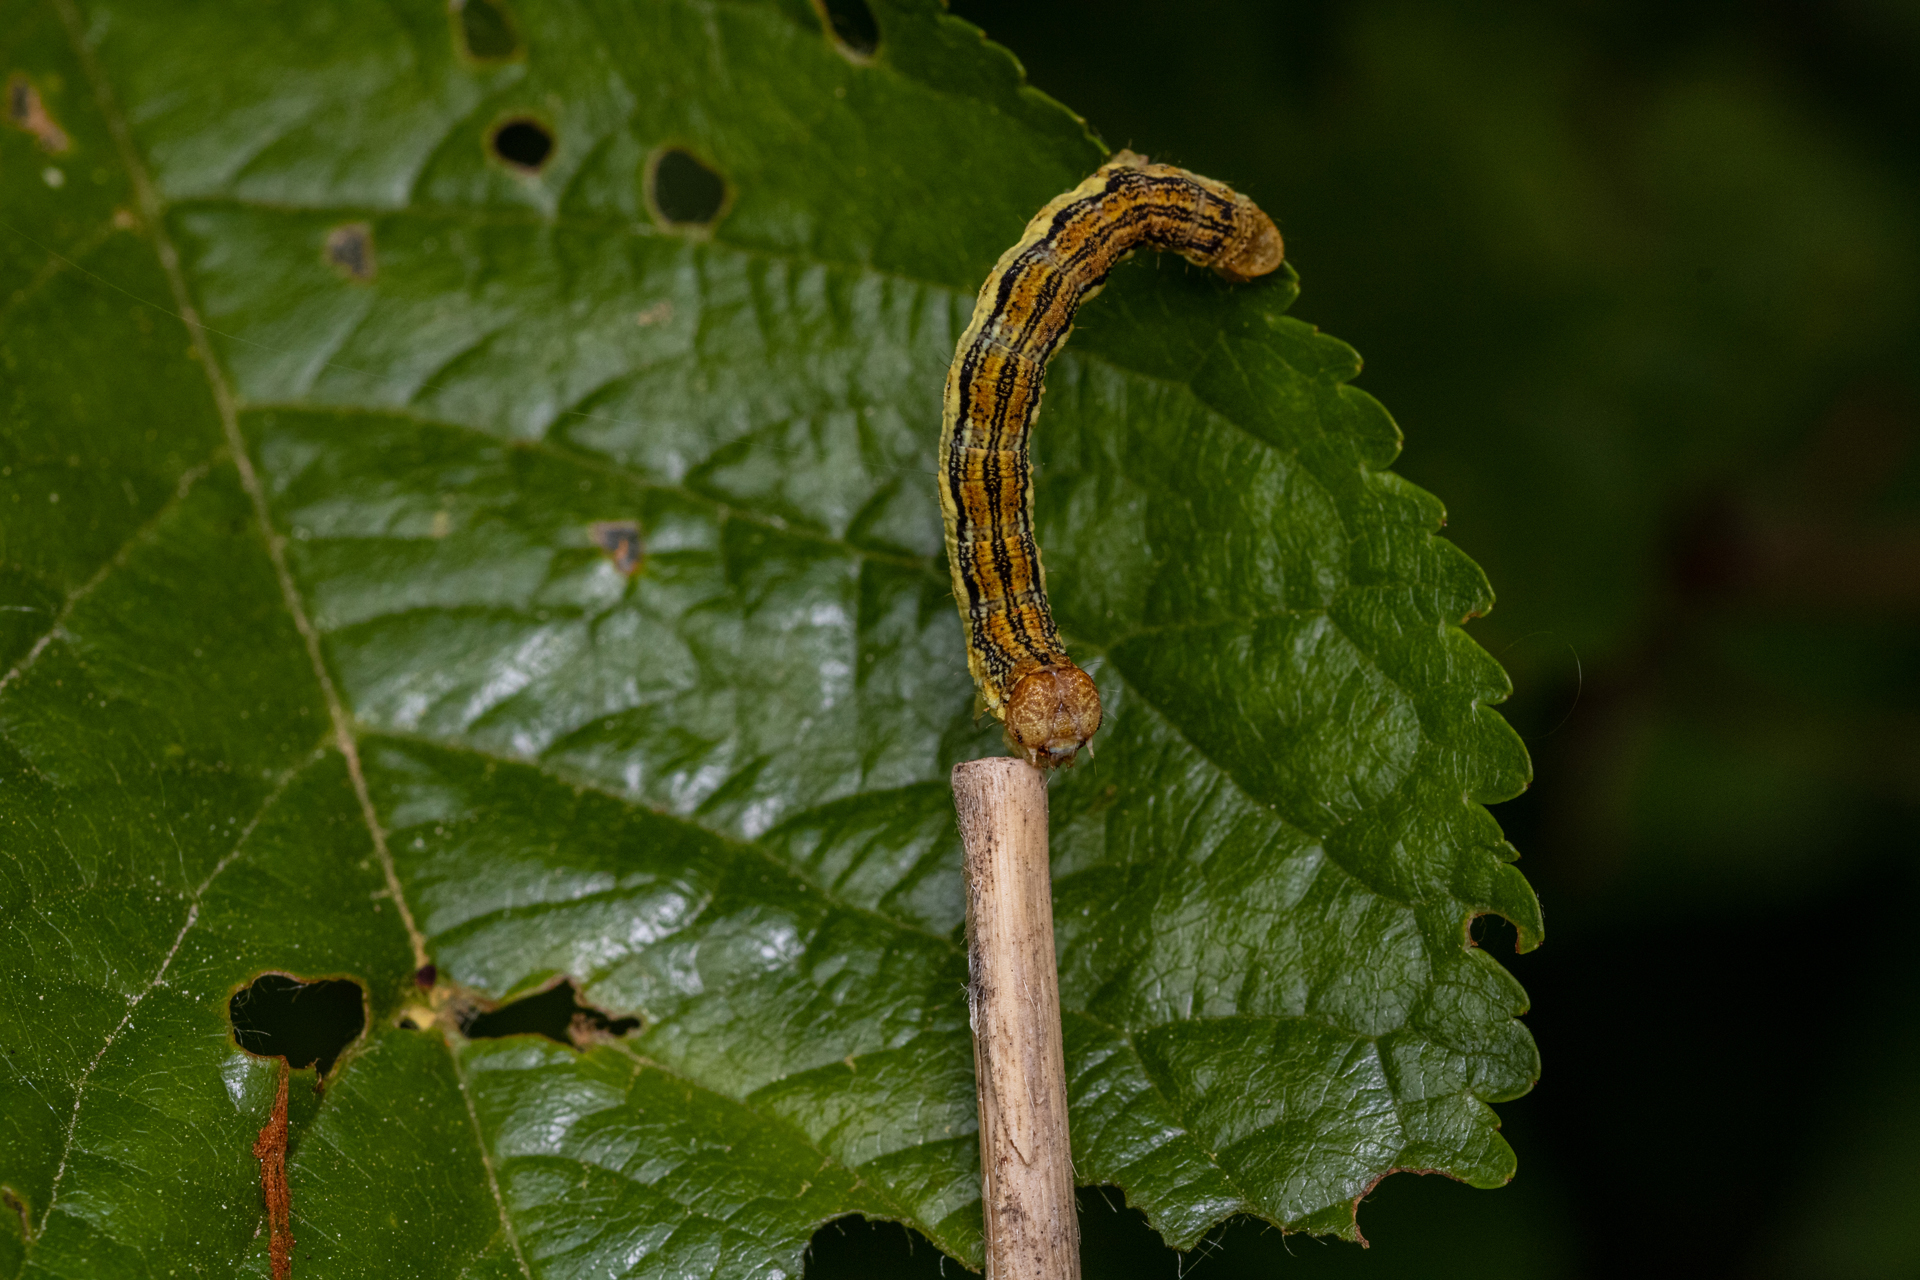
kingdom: Animalia
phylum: Arthropoda
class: Insecta
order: Lepidoptera
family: Geometridae
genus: Erannis
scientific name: Erannis defoliaria
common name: Mottled umber
